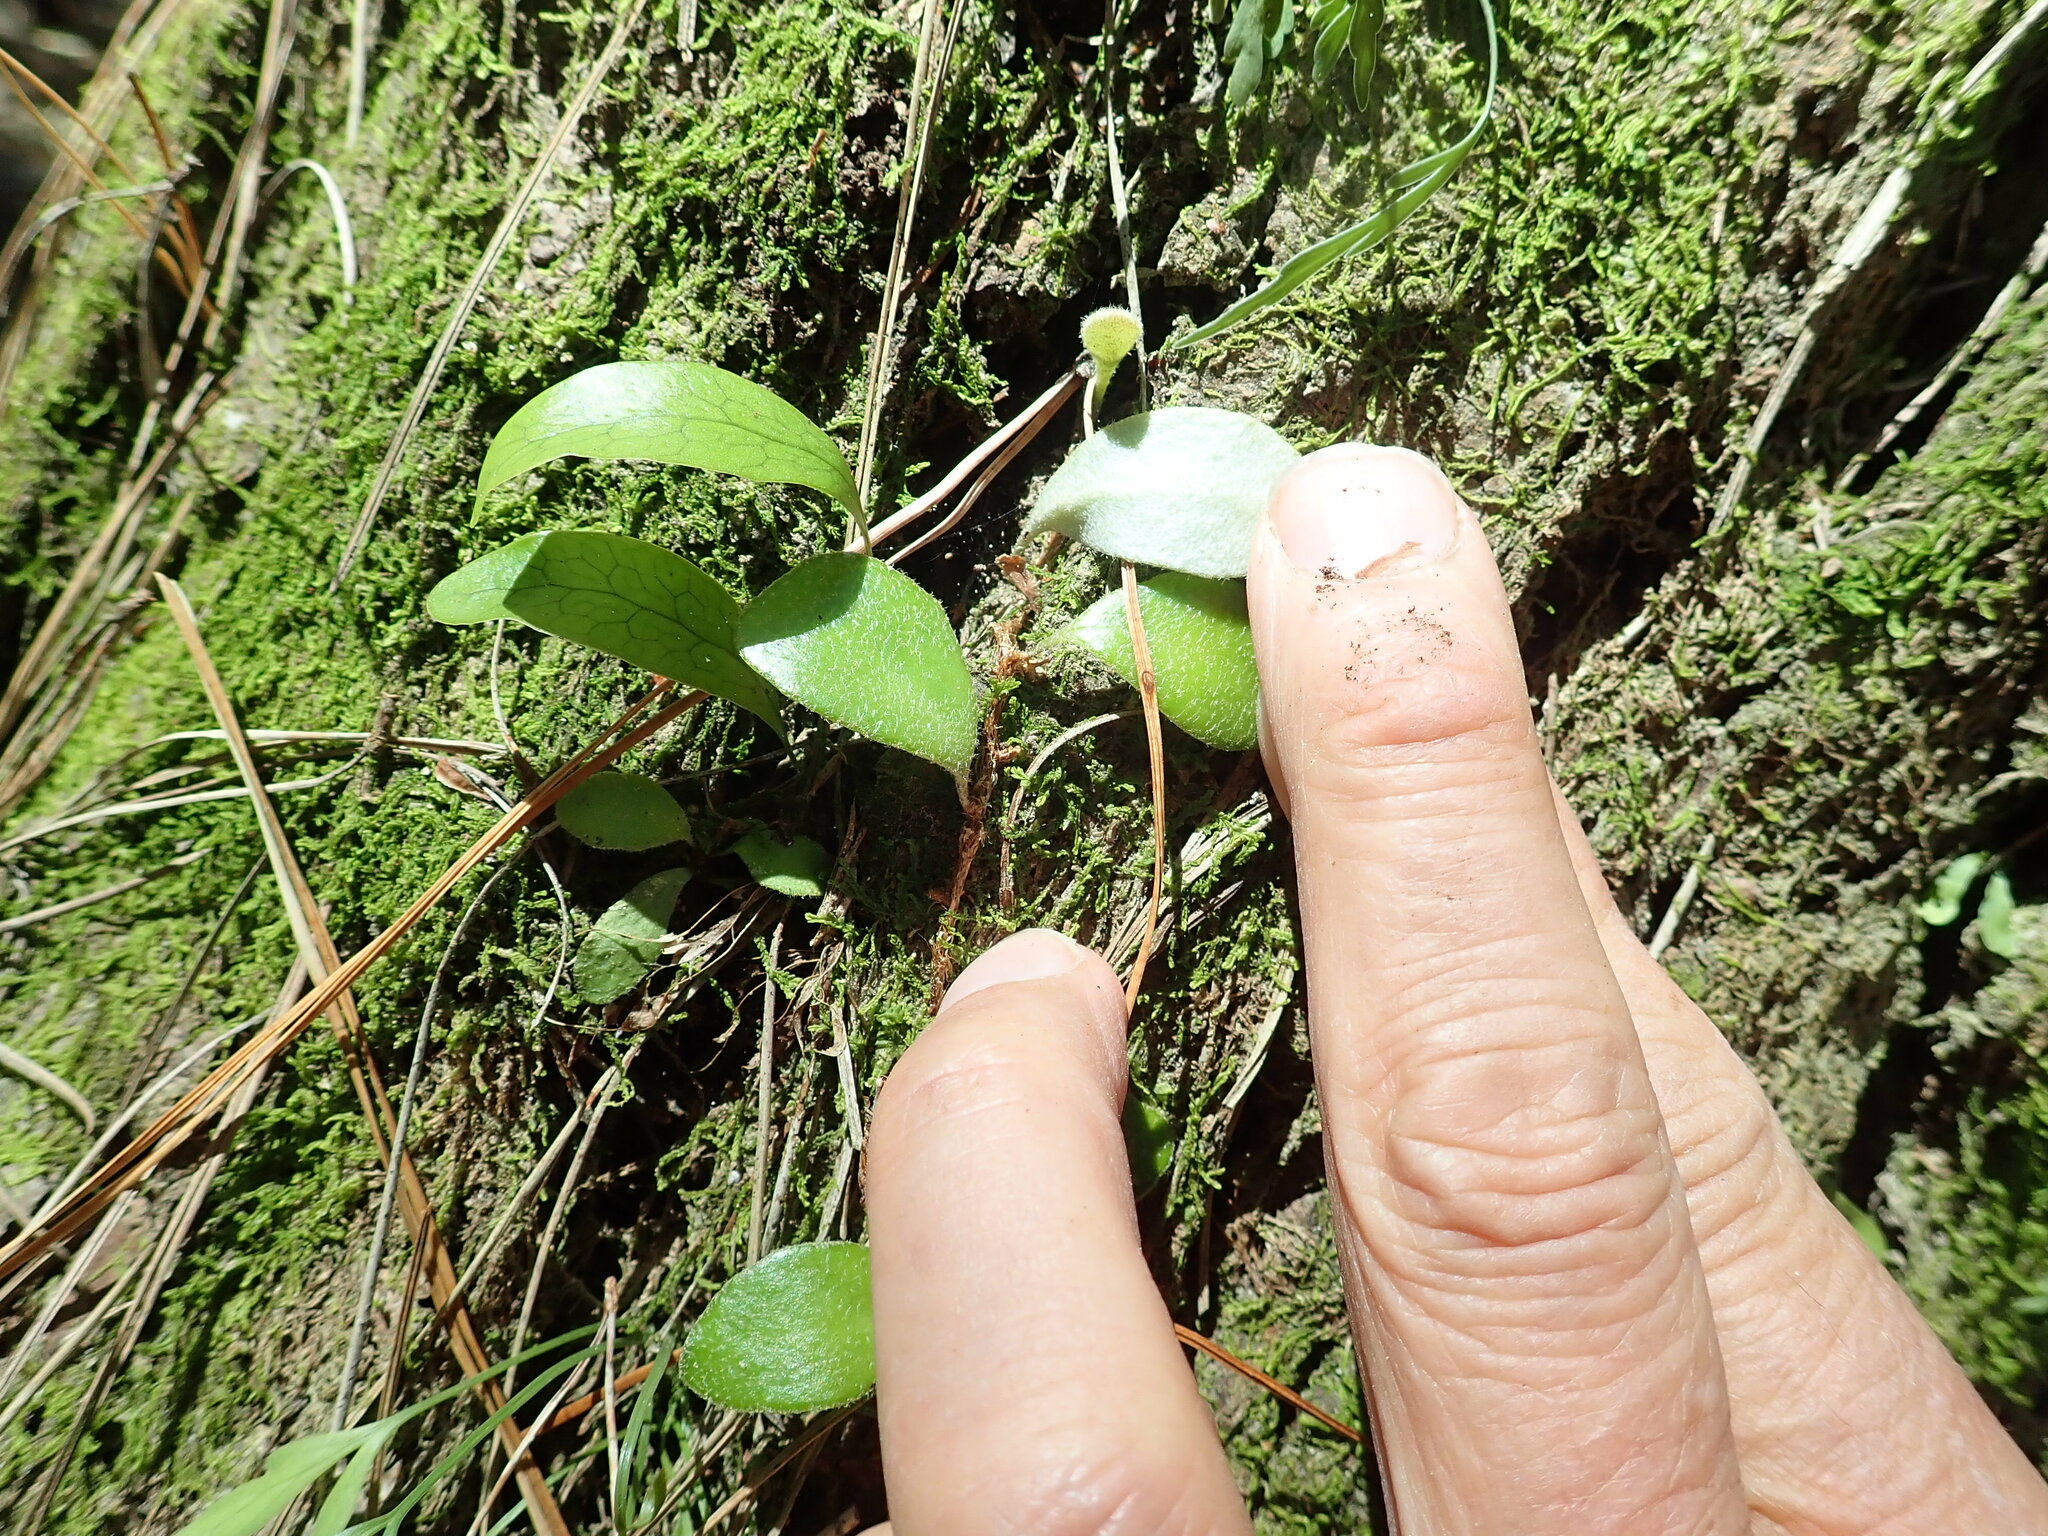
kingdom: Plantae
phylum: Tracheophyta
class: Polypodiopsida
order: Polypodiales
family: Polypodiaceae
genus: Pyrrosia
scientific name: Pyrrosia eleagnifolia
